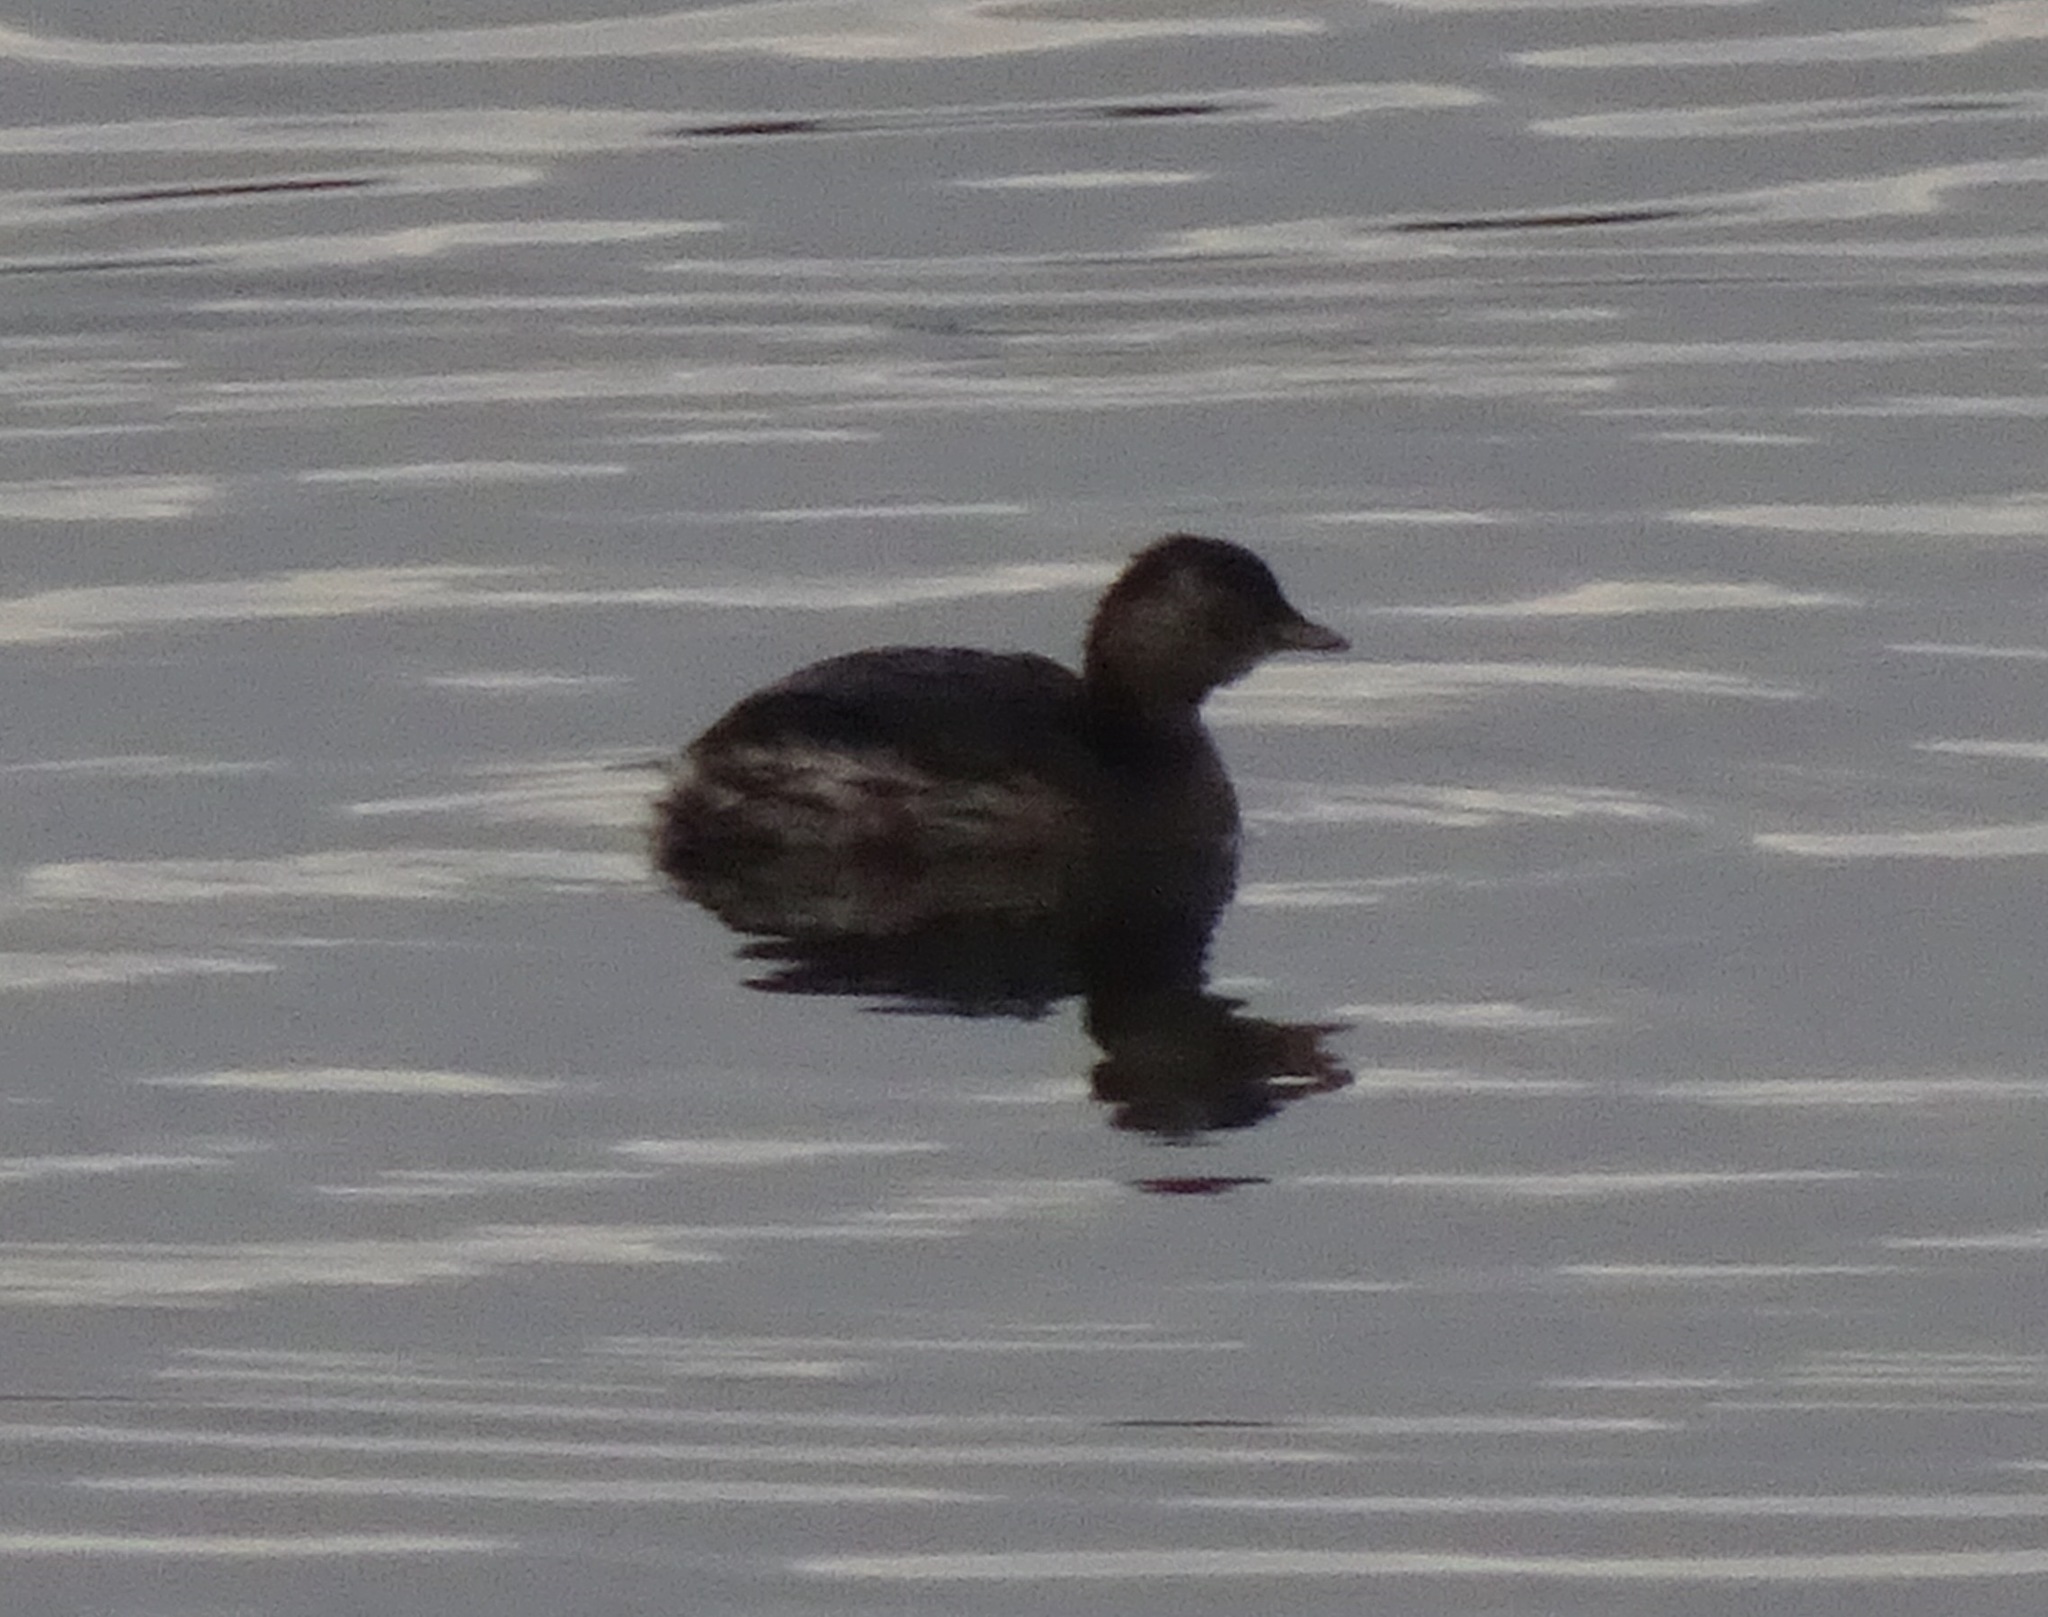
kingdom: Animalia
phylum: Chordata
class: Aves
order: Podicipediformes
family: Podicipedidae
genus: Tachybaptus
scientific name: Tachybaptus ruficollis
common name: Little grebe
